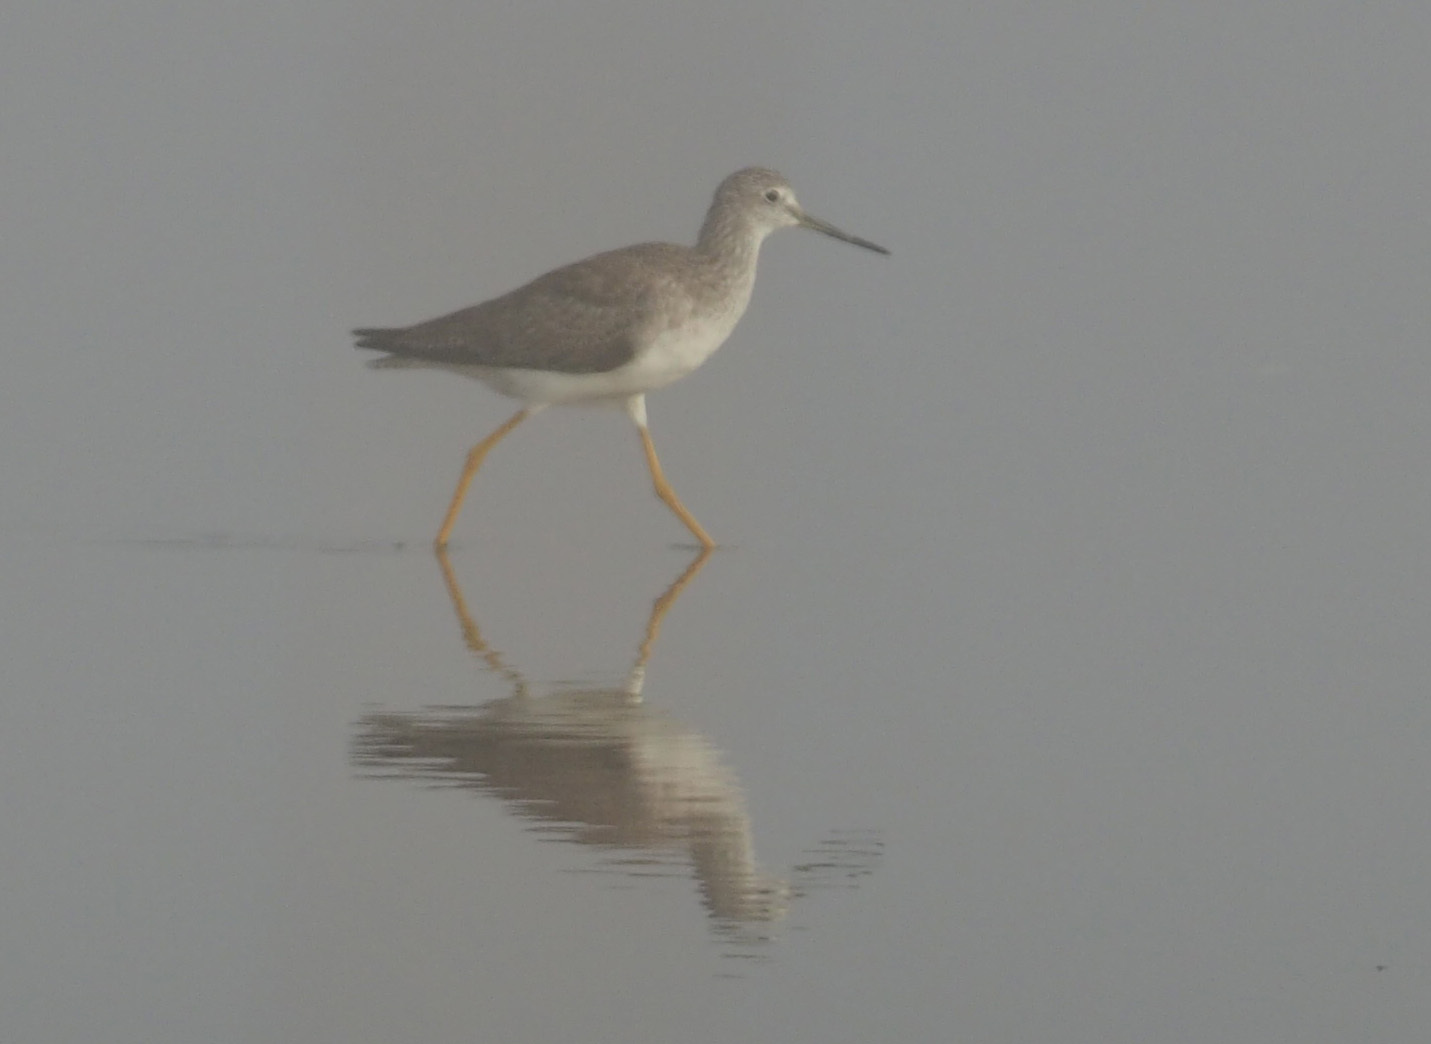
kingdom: Animalia
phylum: Chordata
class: Aves
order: Charadriiformes
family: Scolopacidae
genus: Tringa
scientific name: Tringa melanoleuca
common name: Greater yellowlegs
